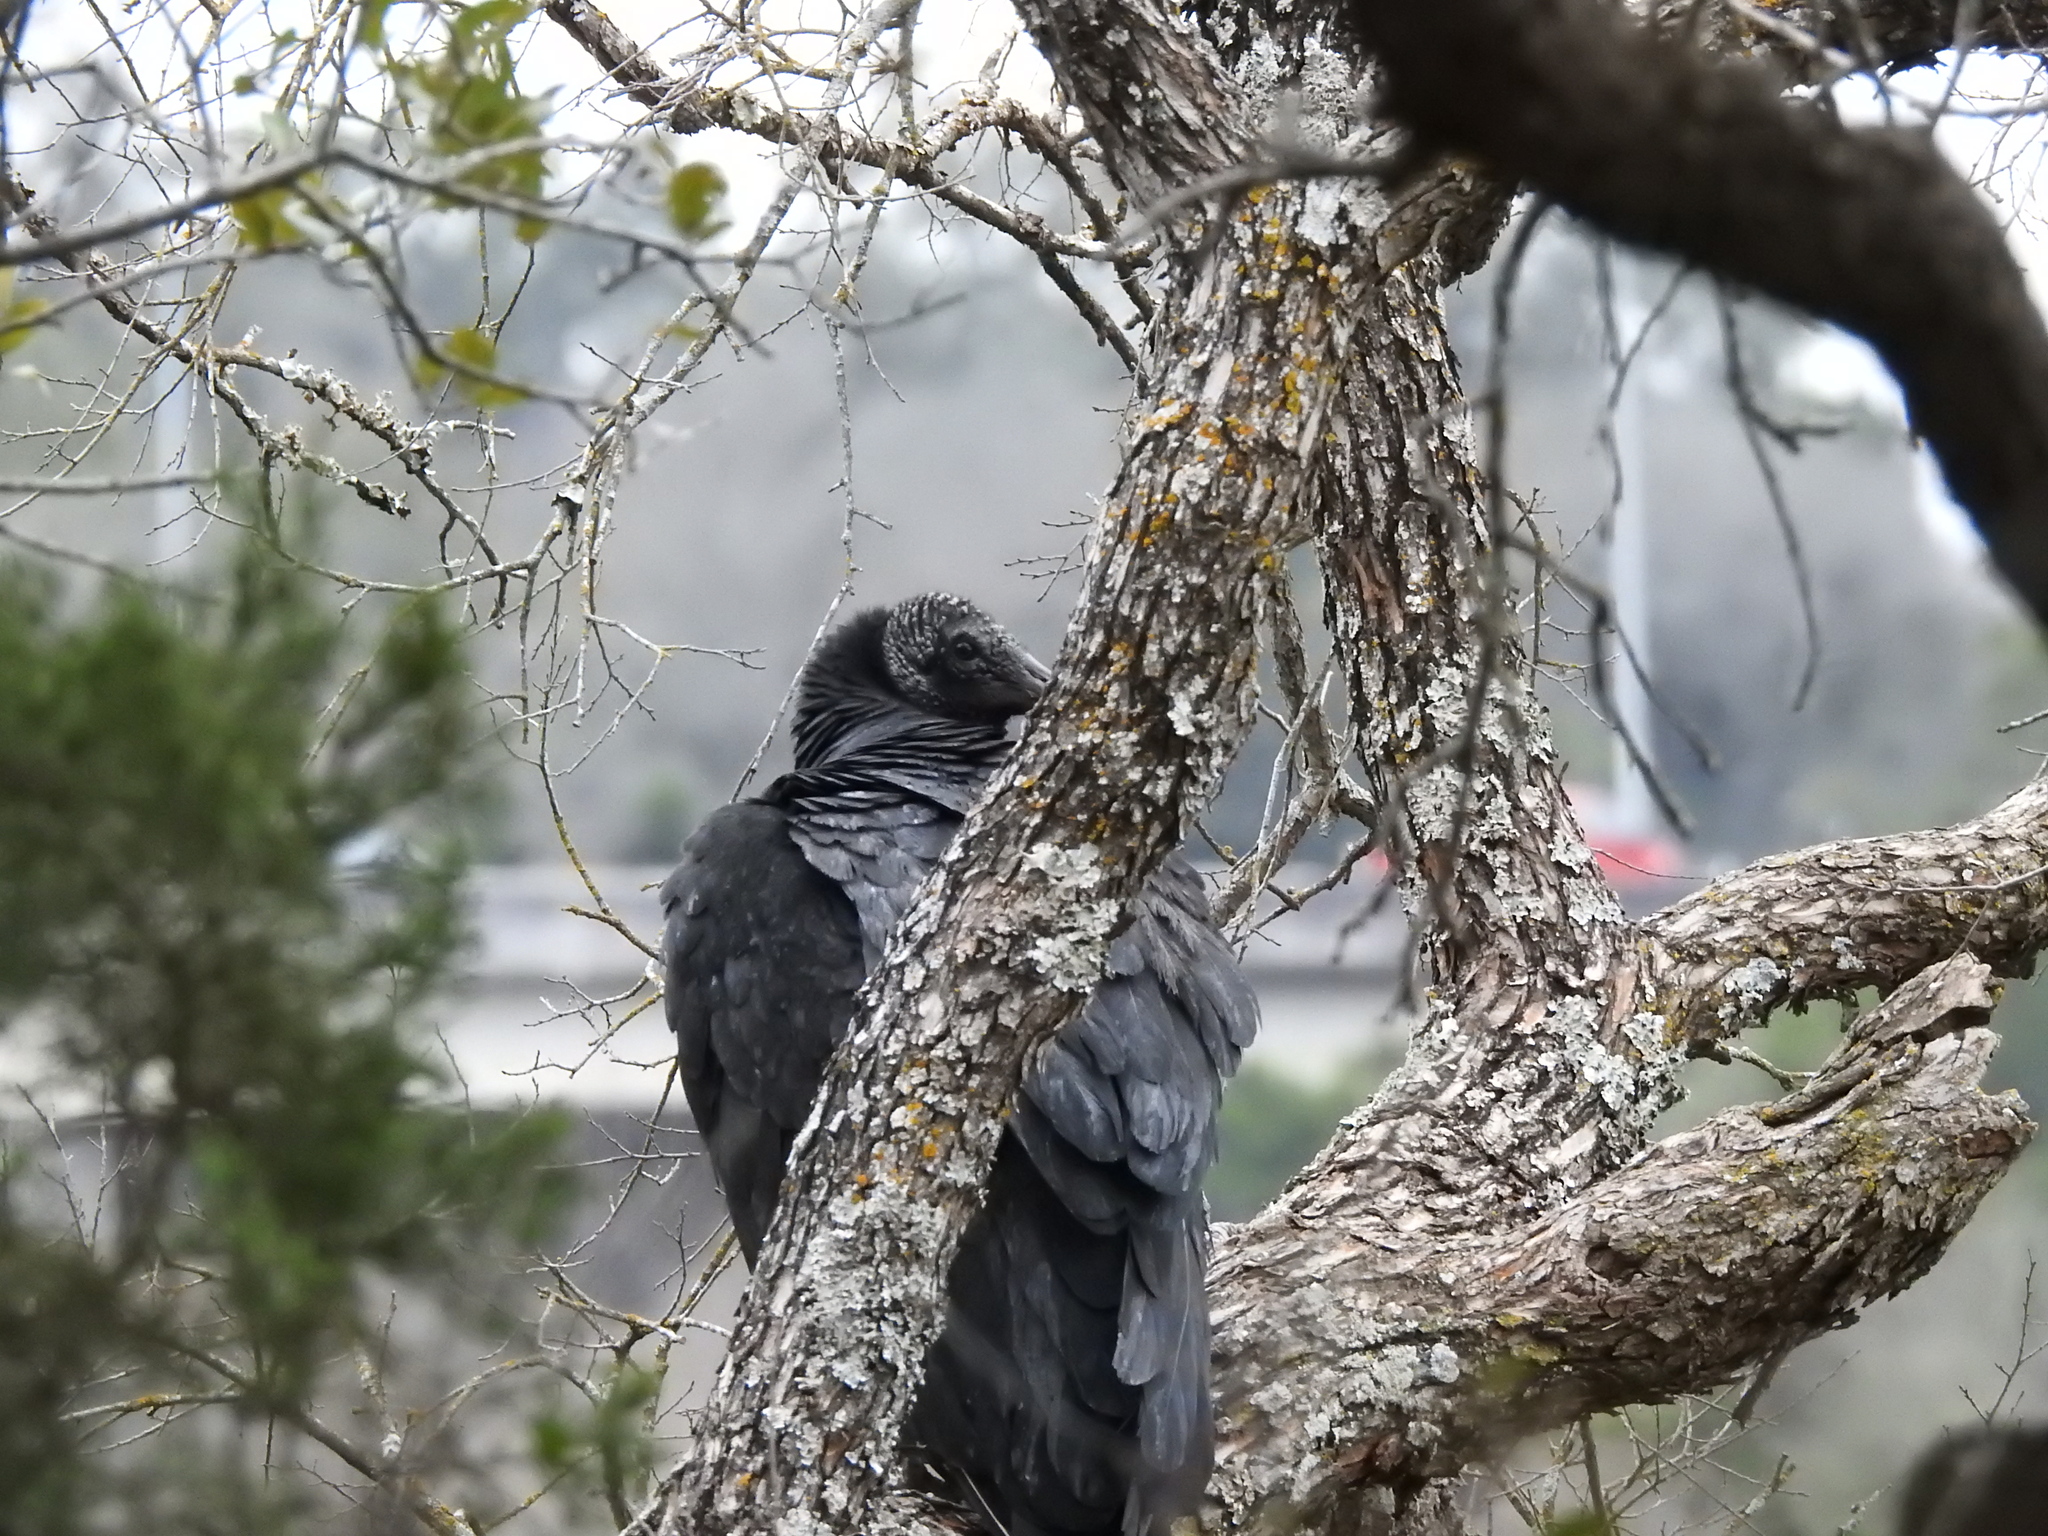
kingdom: Animalia
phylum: Chordata
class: Aves
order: Accipitriformes
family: Cathartidae
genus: Coragyps
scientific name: Coragyps atratus
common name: Black vulture
